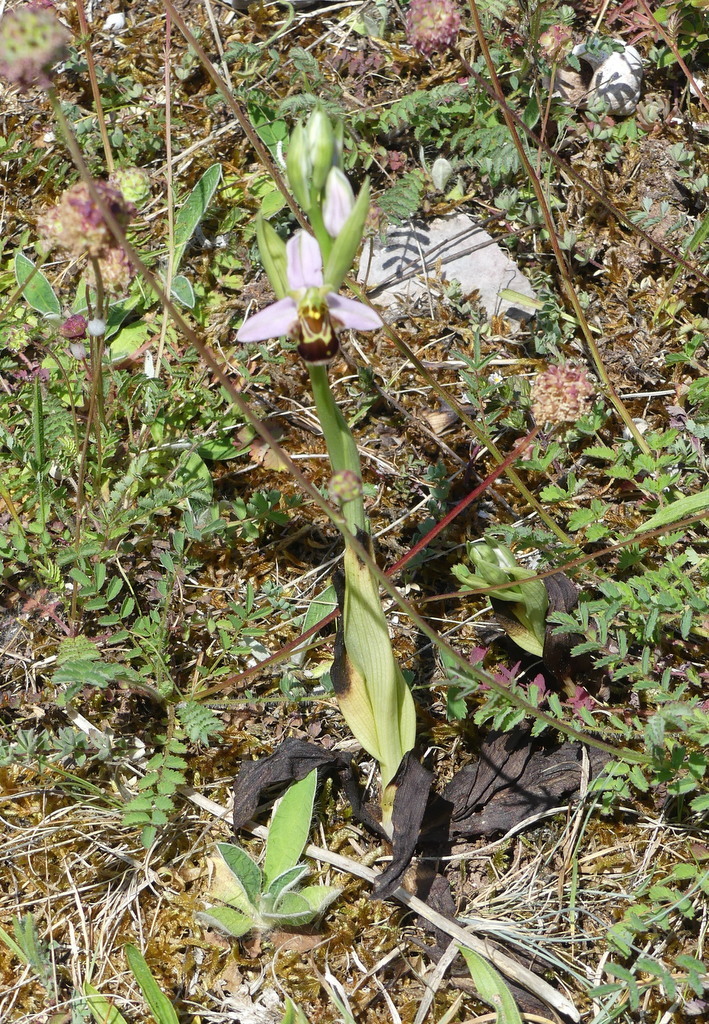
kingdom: Plantae
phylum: Tracheophyta
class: Liliopsida
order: Asparagales
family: Orchidaceae
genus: Ophrys
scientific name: Ophrys apifera
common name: Bee orchid
